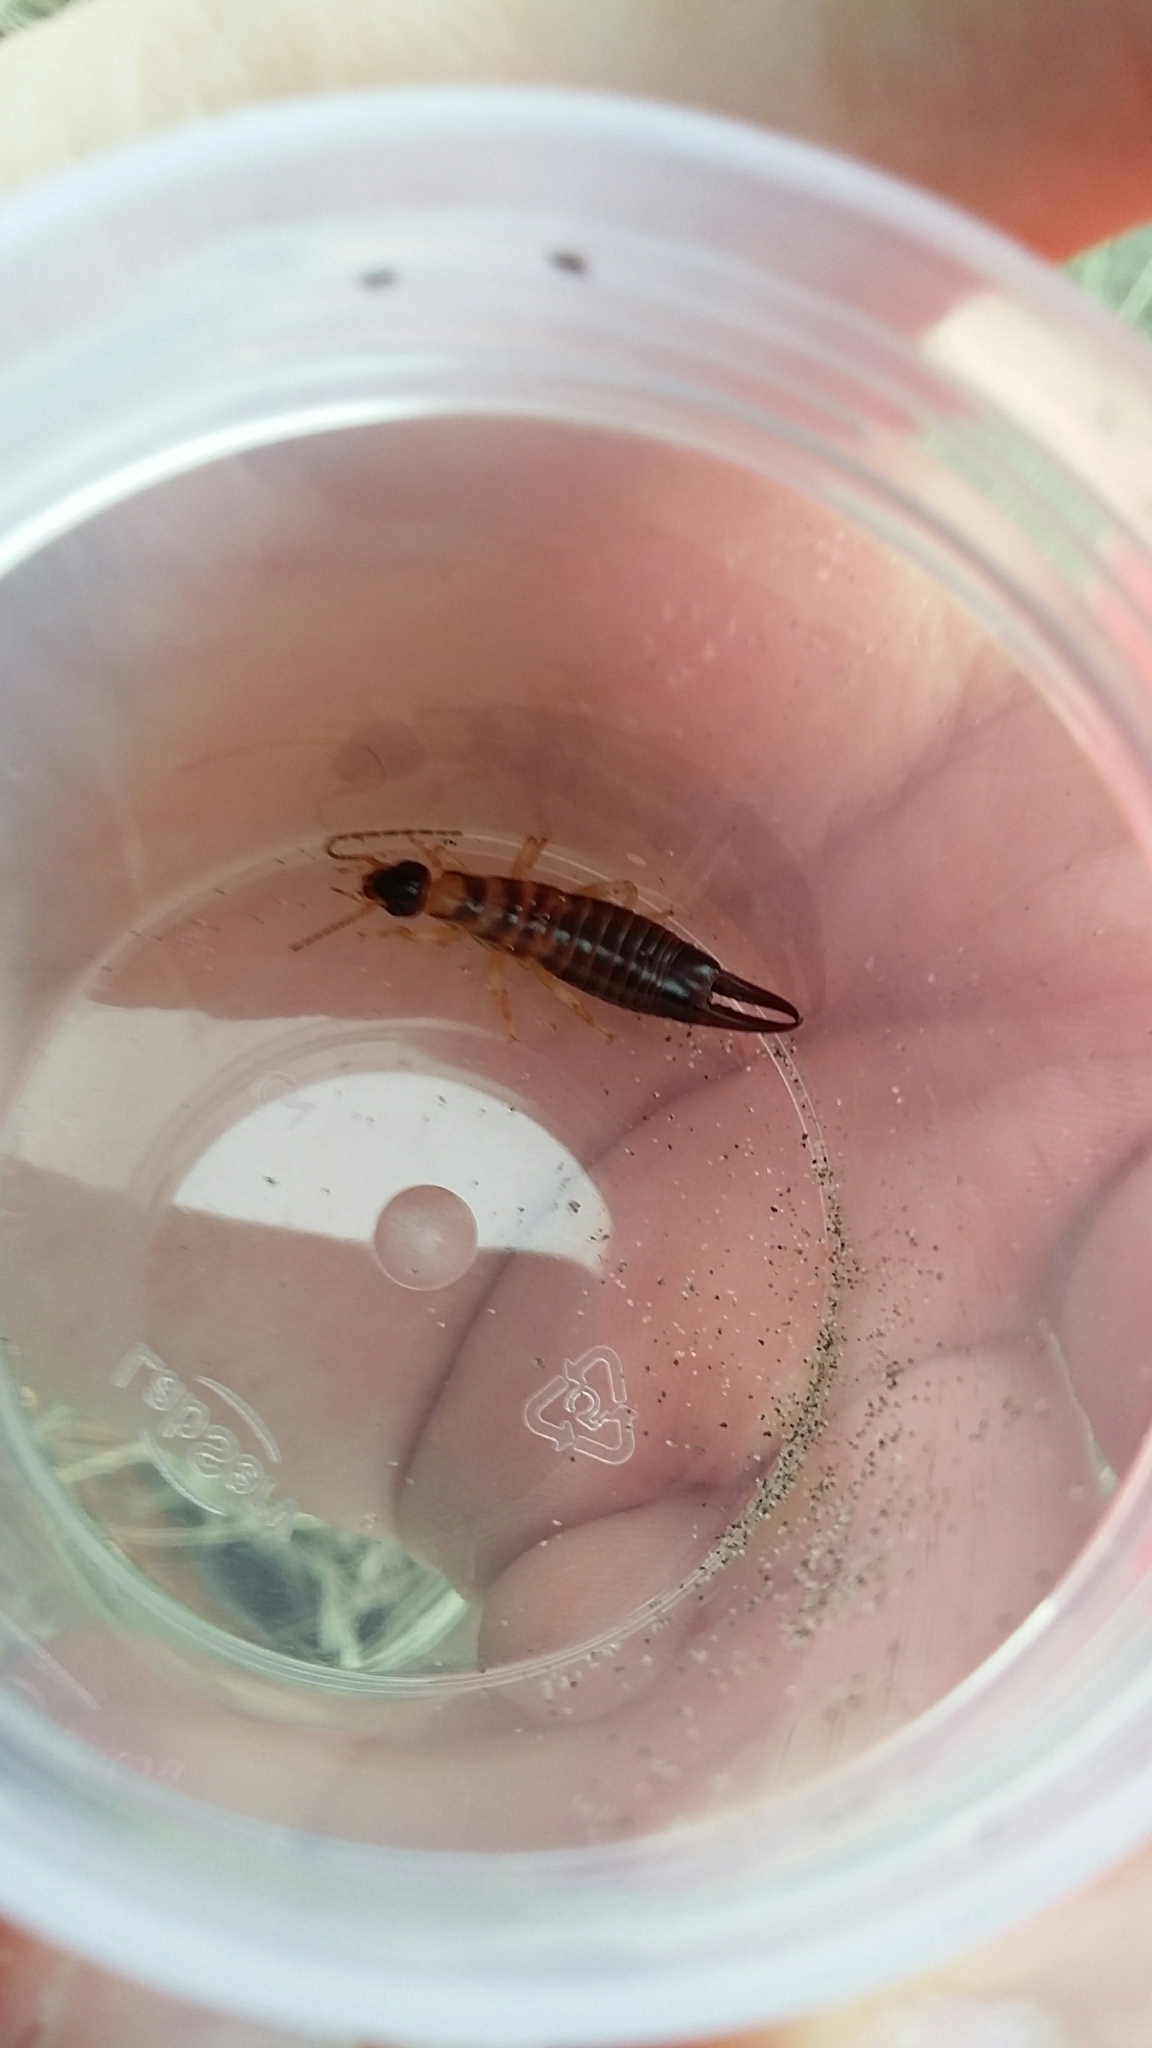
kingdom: Animalia
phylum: Arthropoda
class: Insecta
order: Dermaptera
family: Anisolabididae
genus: Anisolabis
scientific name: Anisolabis littorea
